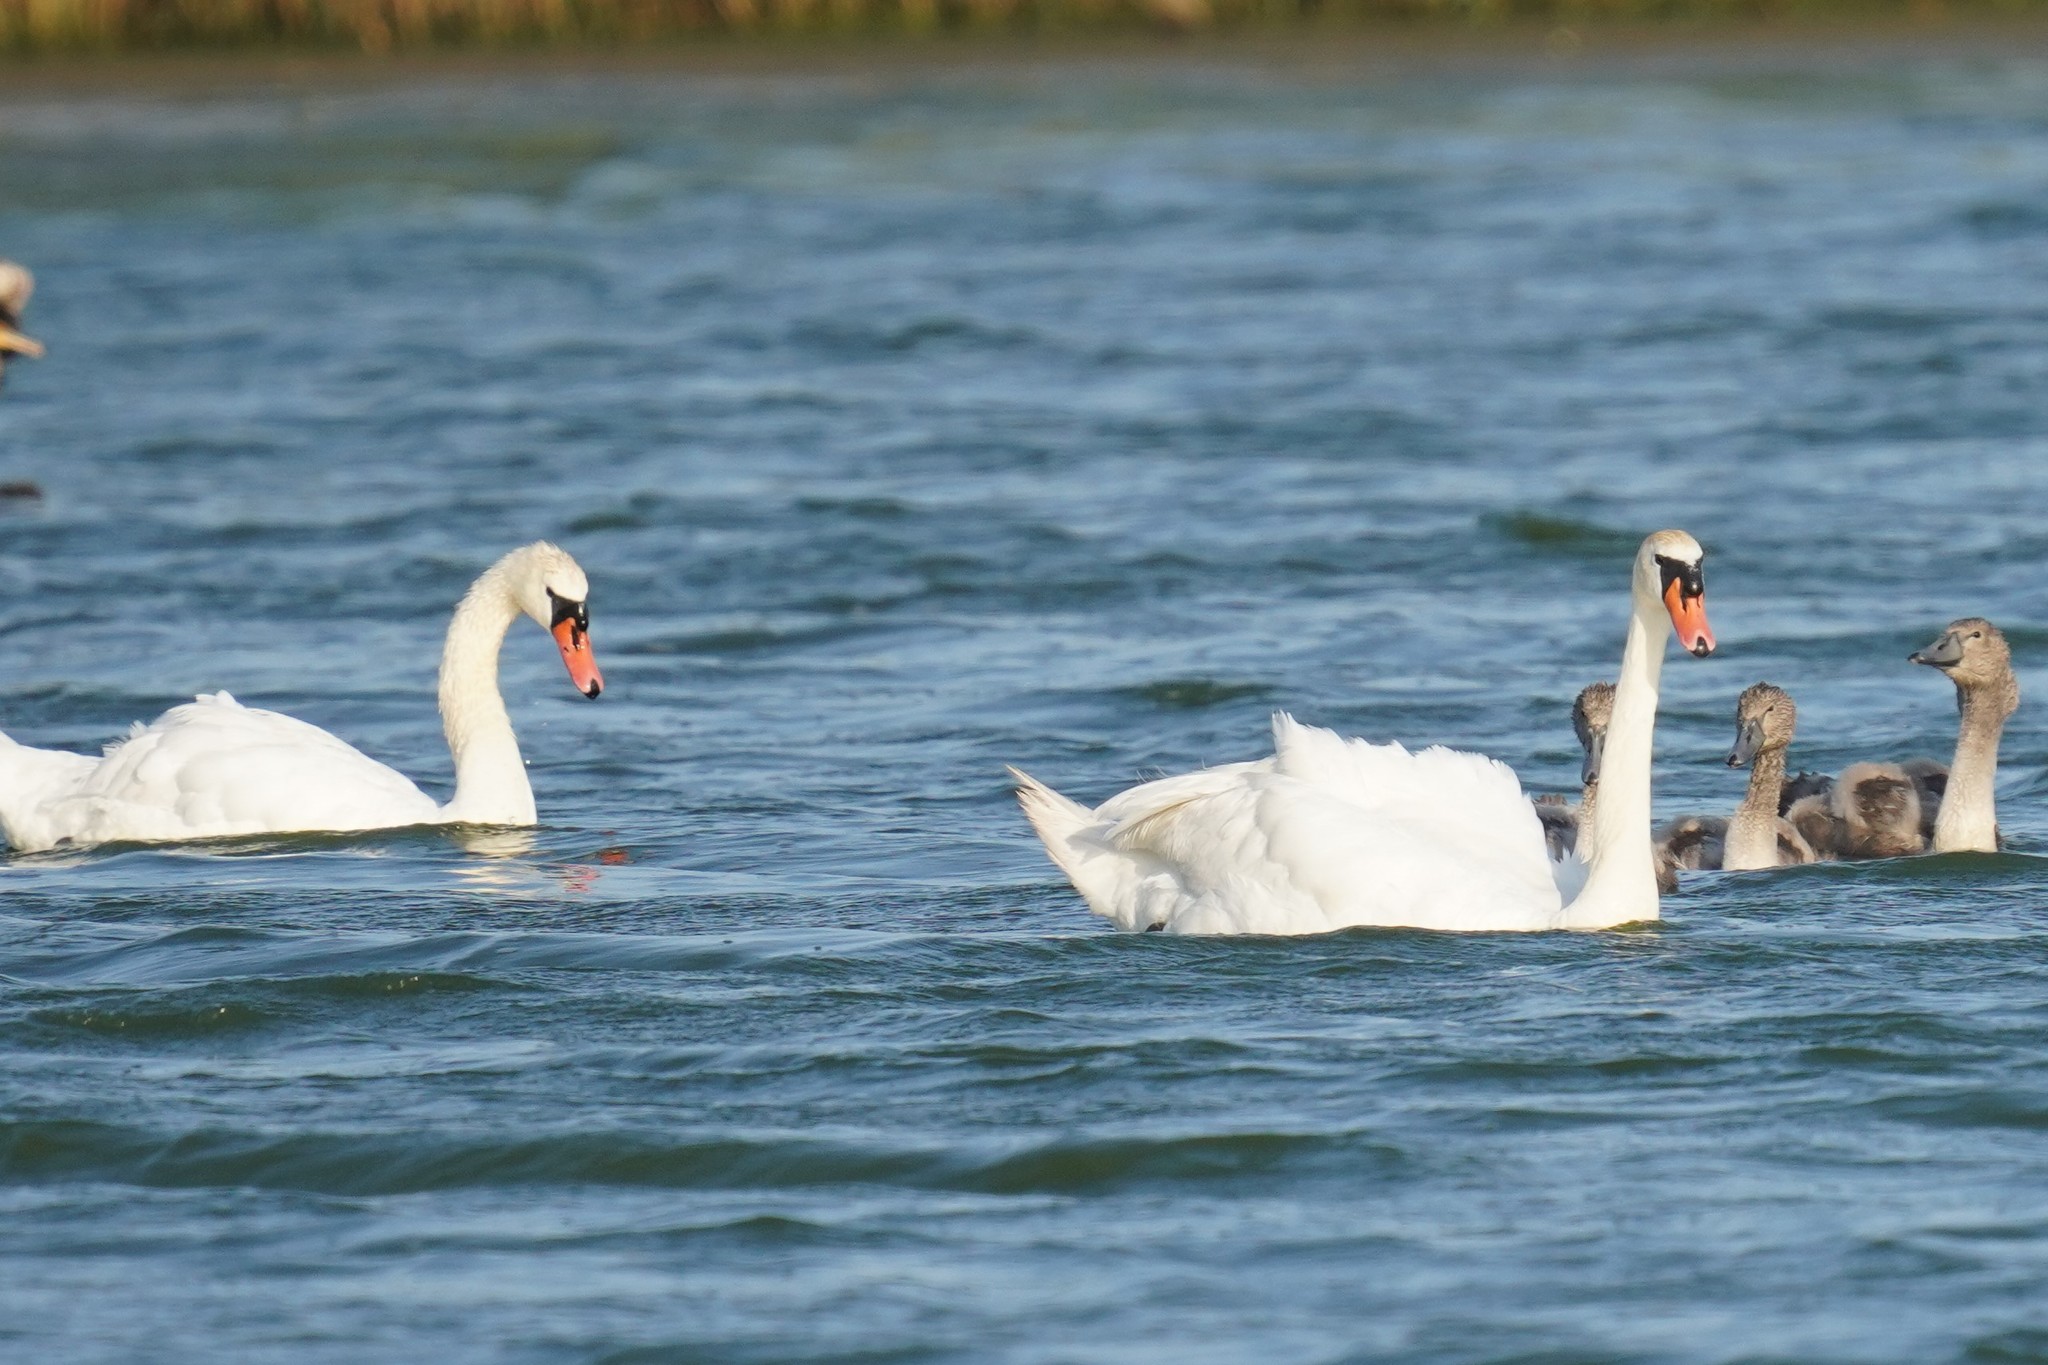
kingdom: Animalia
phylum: Chordata
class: Aves
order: Anseriformes
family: Anatidae
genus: Cygnus
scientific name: Cygnus olor
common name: Mute swan
